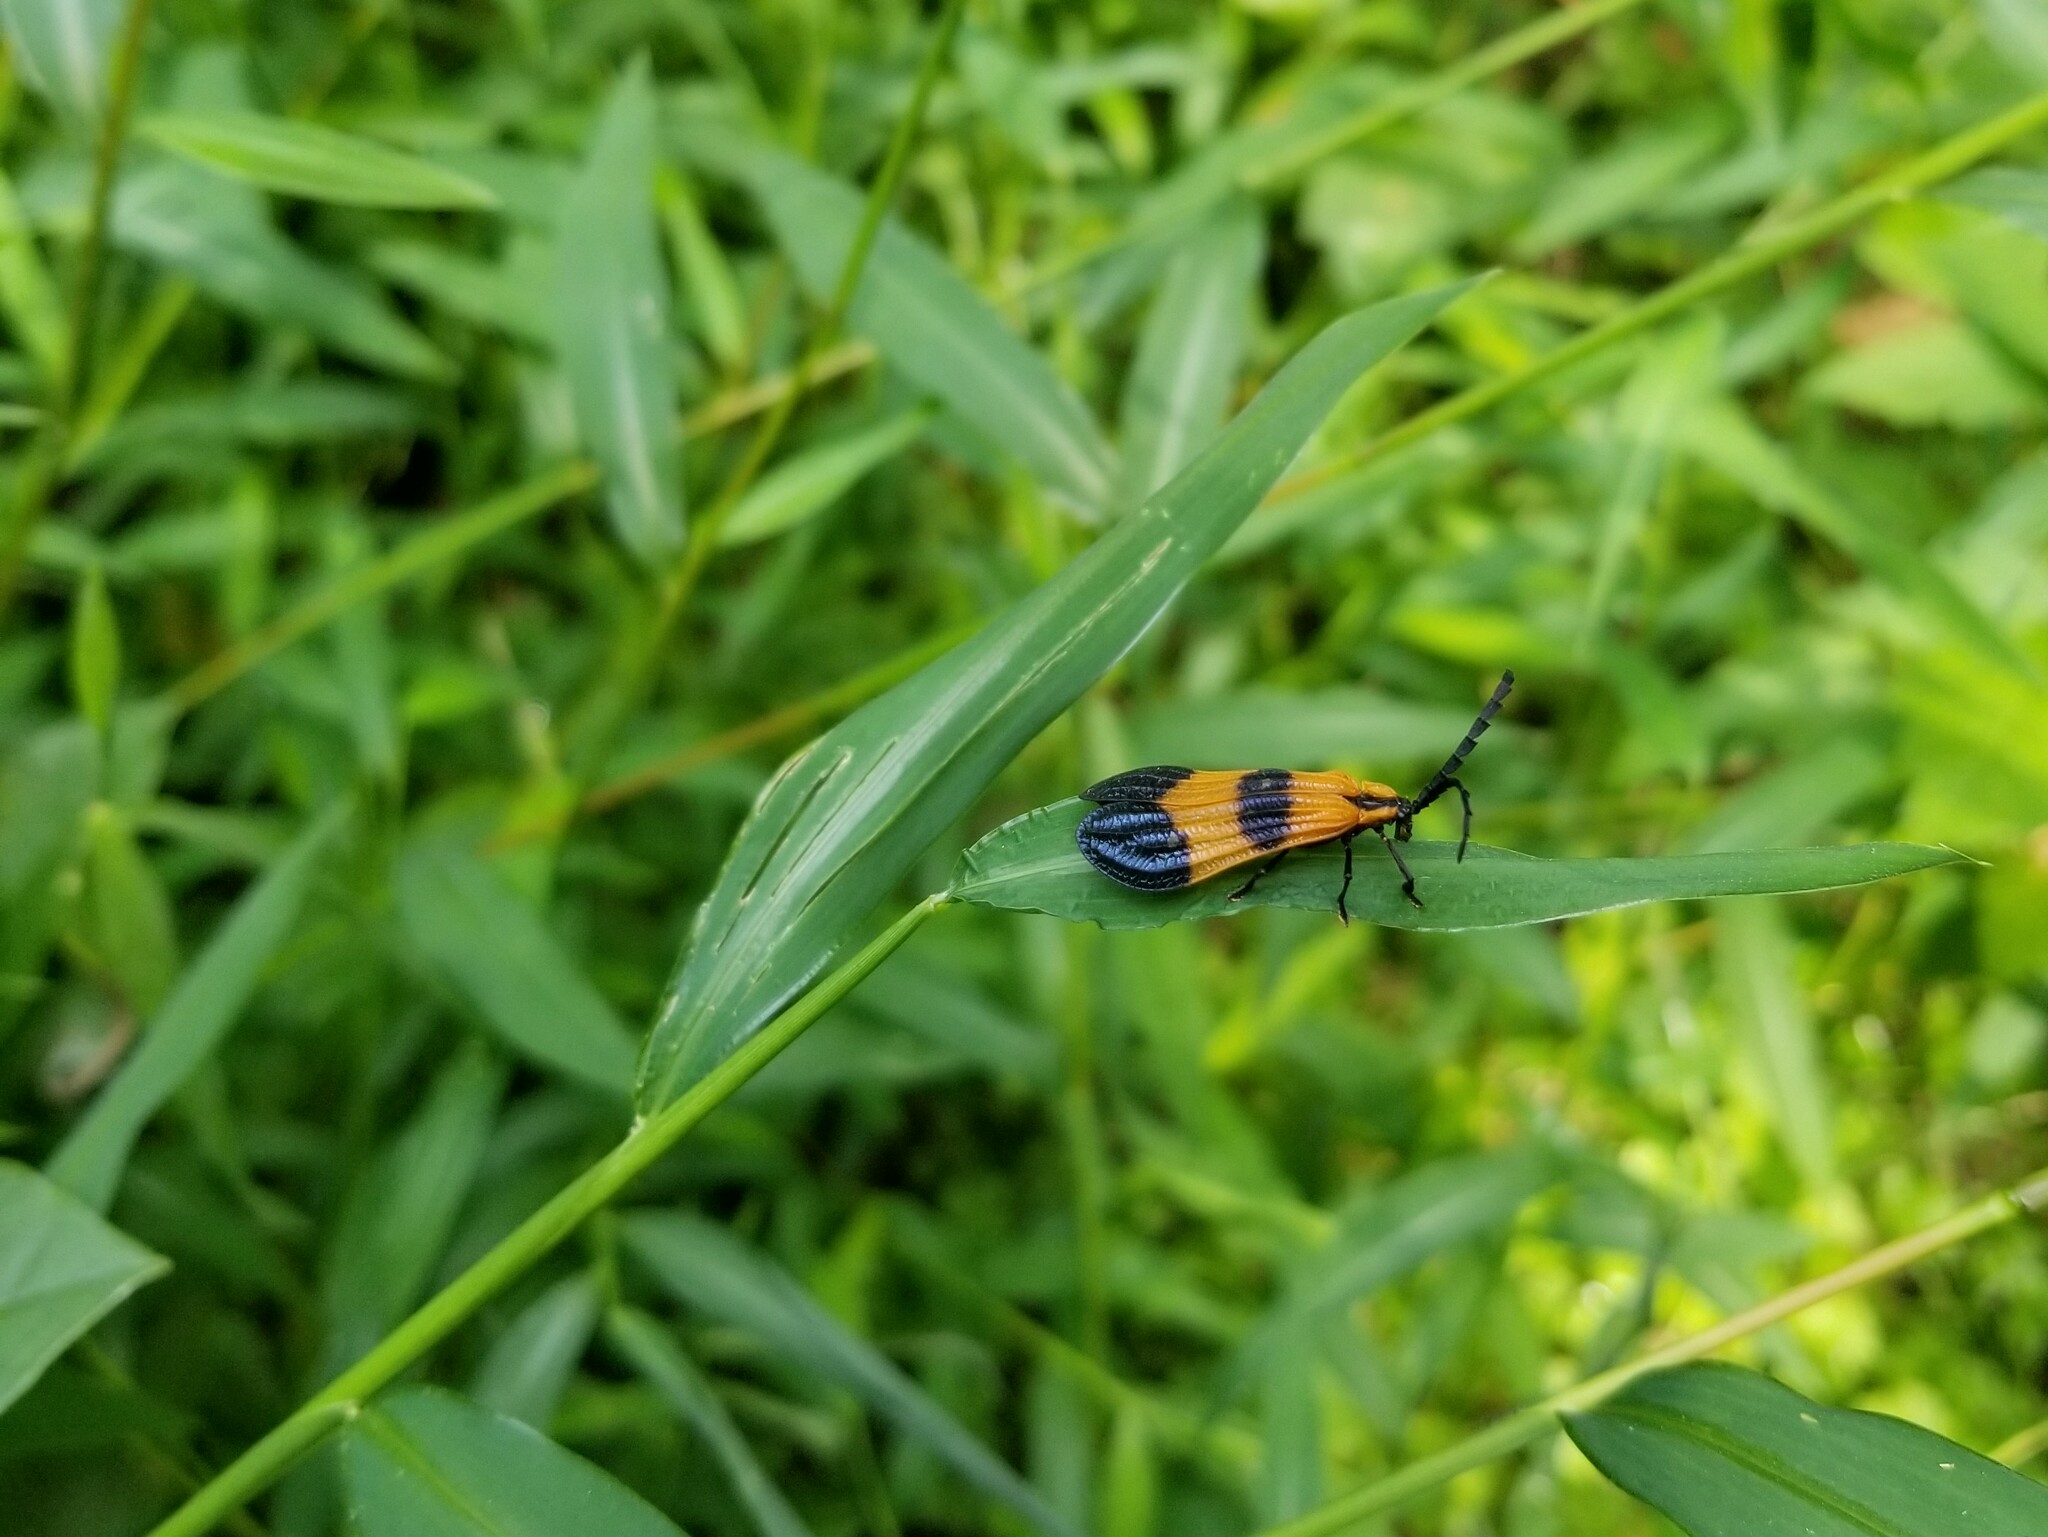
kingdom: Animalia
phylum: Arthropoda
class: Insecta
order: Coleoptera
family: Lycidae
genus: Calopteron
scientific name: Calopteron terminale
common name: End band net-winged beetle
